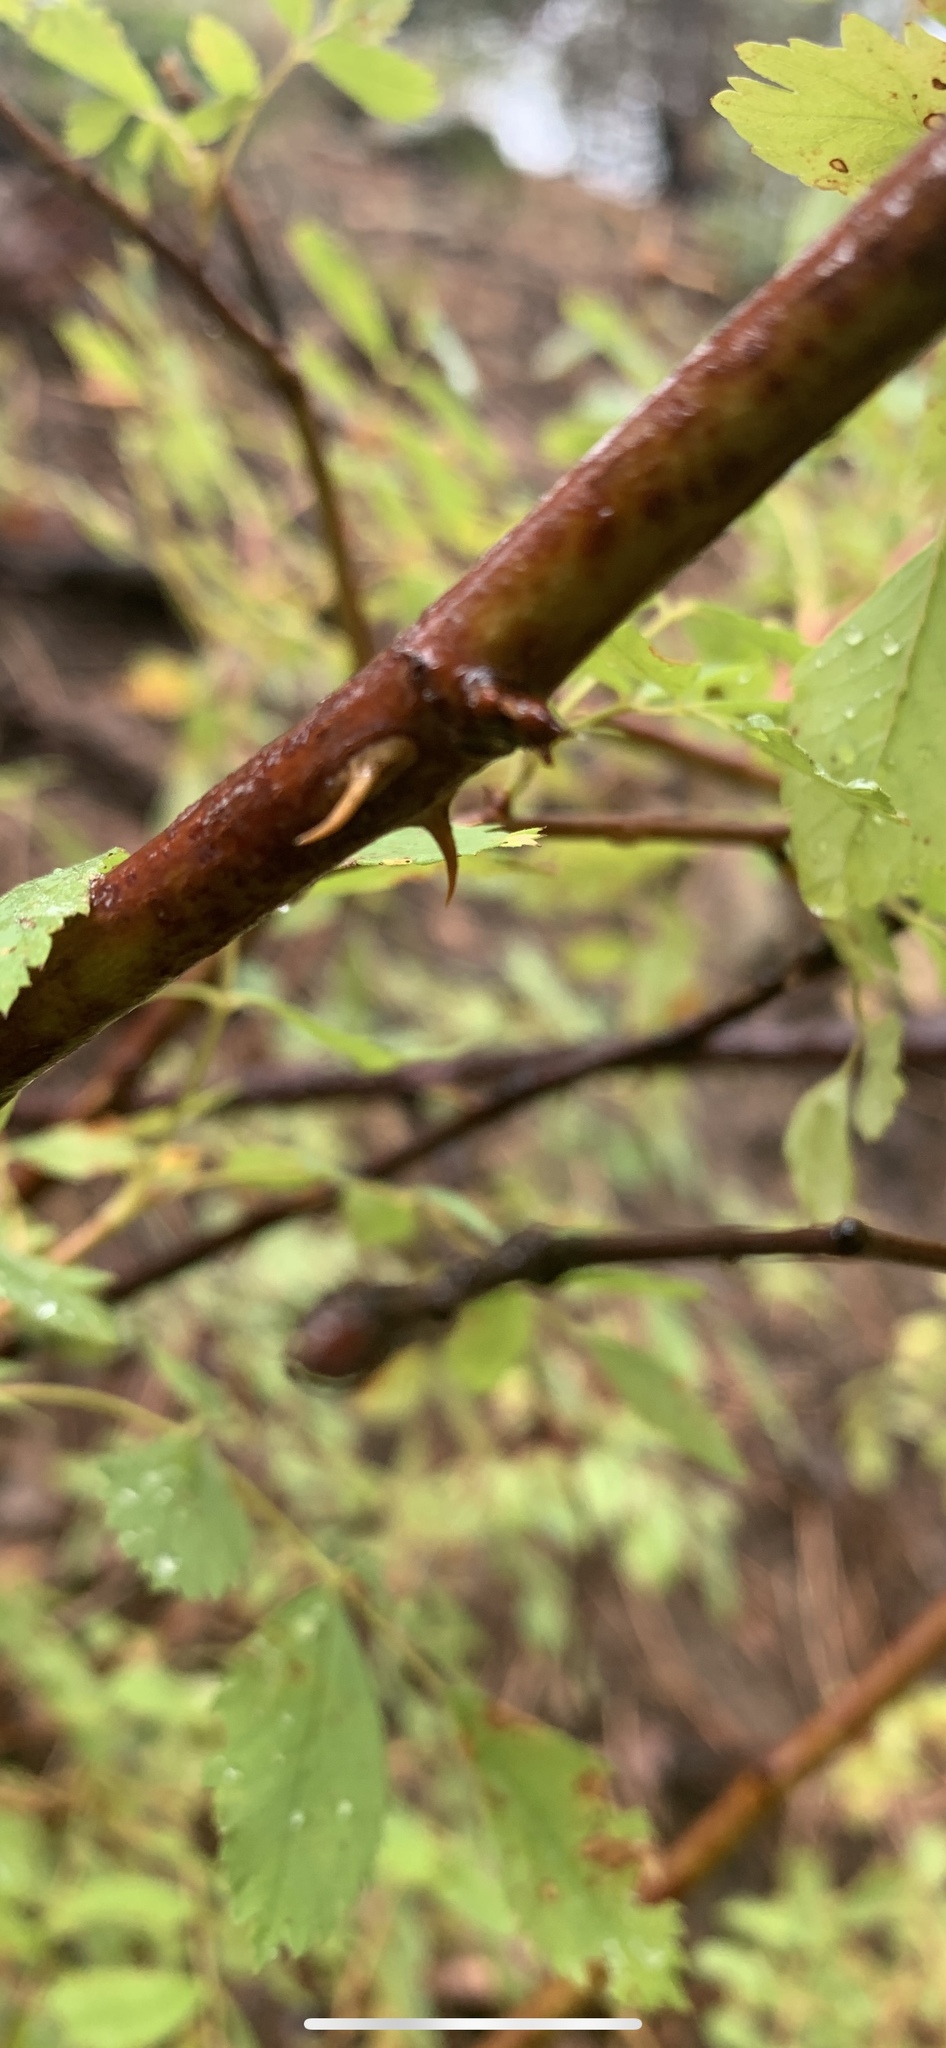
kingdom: Plantae
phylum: Tracheophyta
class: Magnoliopsida
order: Rosales
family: Rosaceae
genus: Rosa
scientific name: Rosa woodsii
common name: Woods's rose
